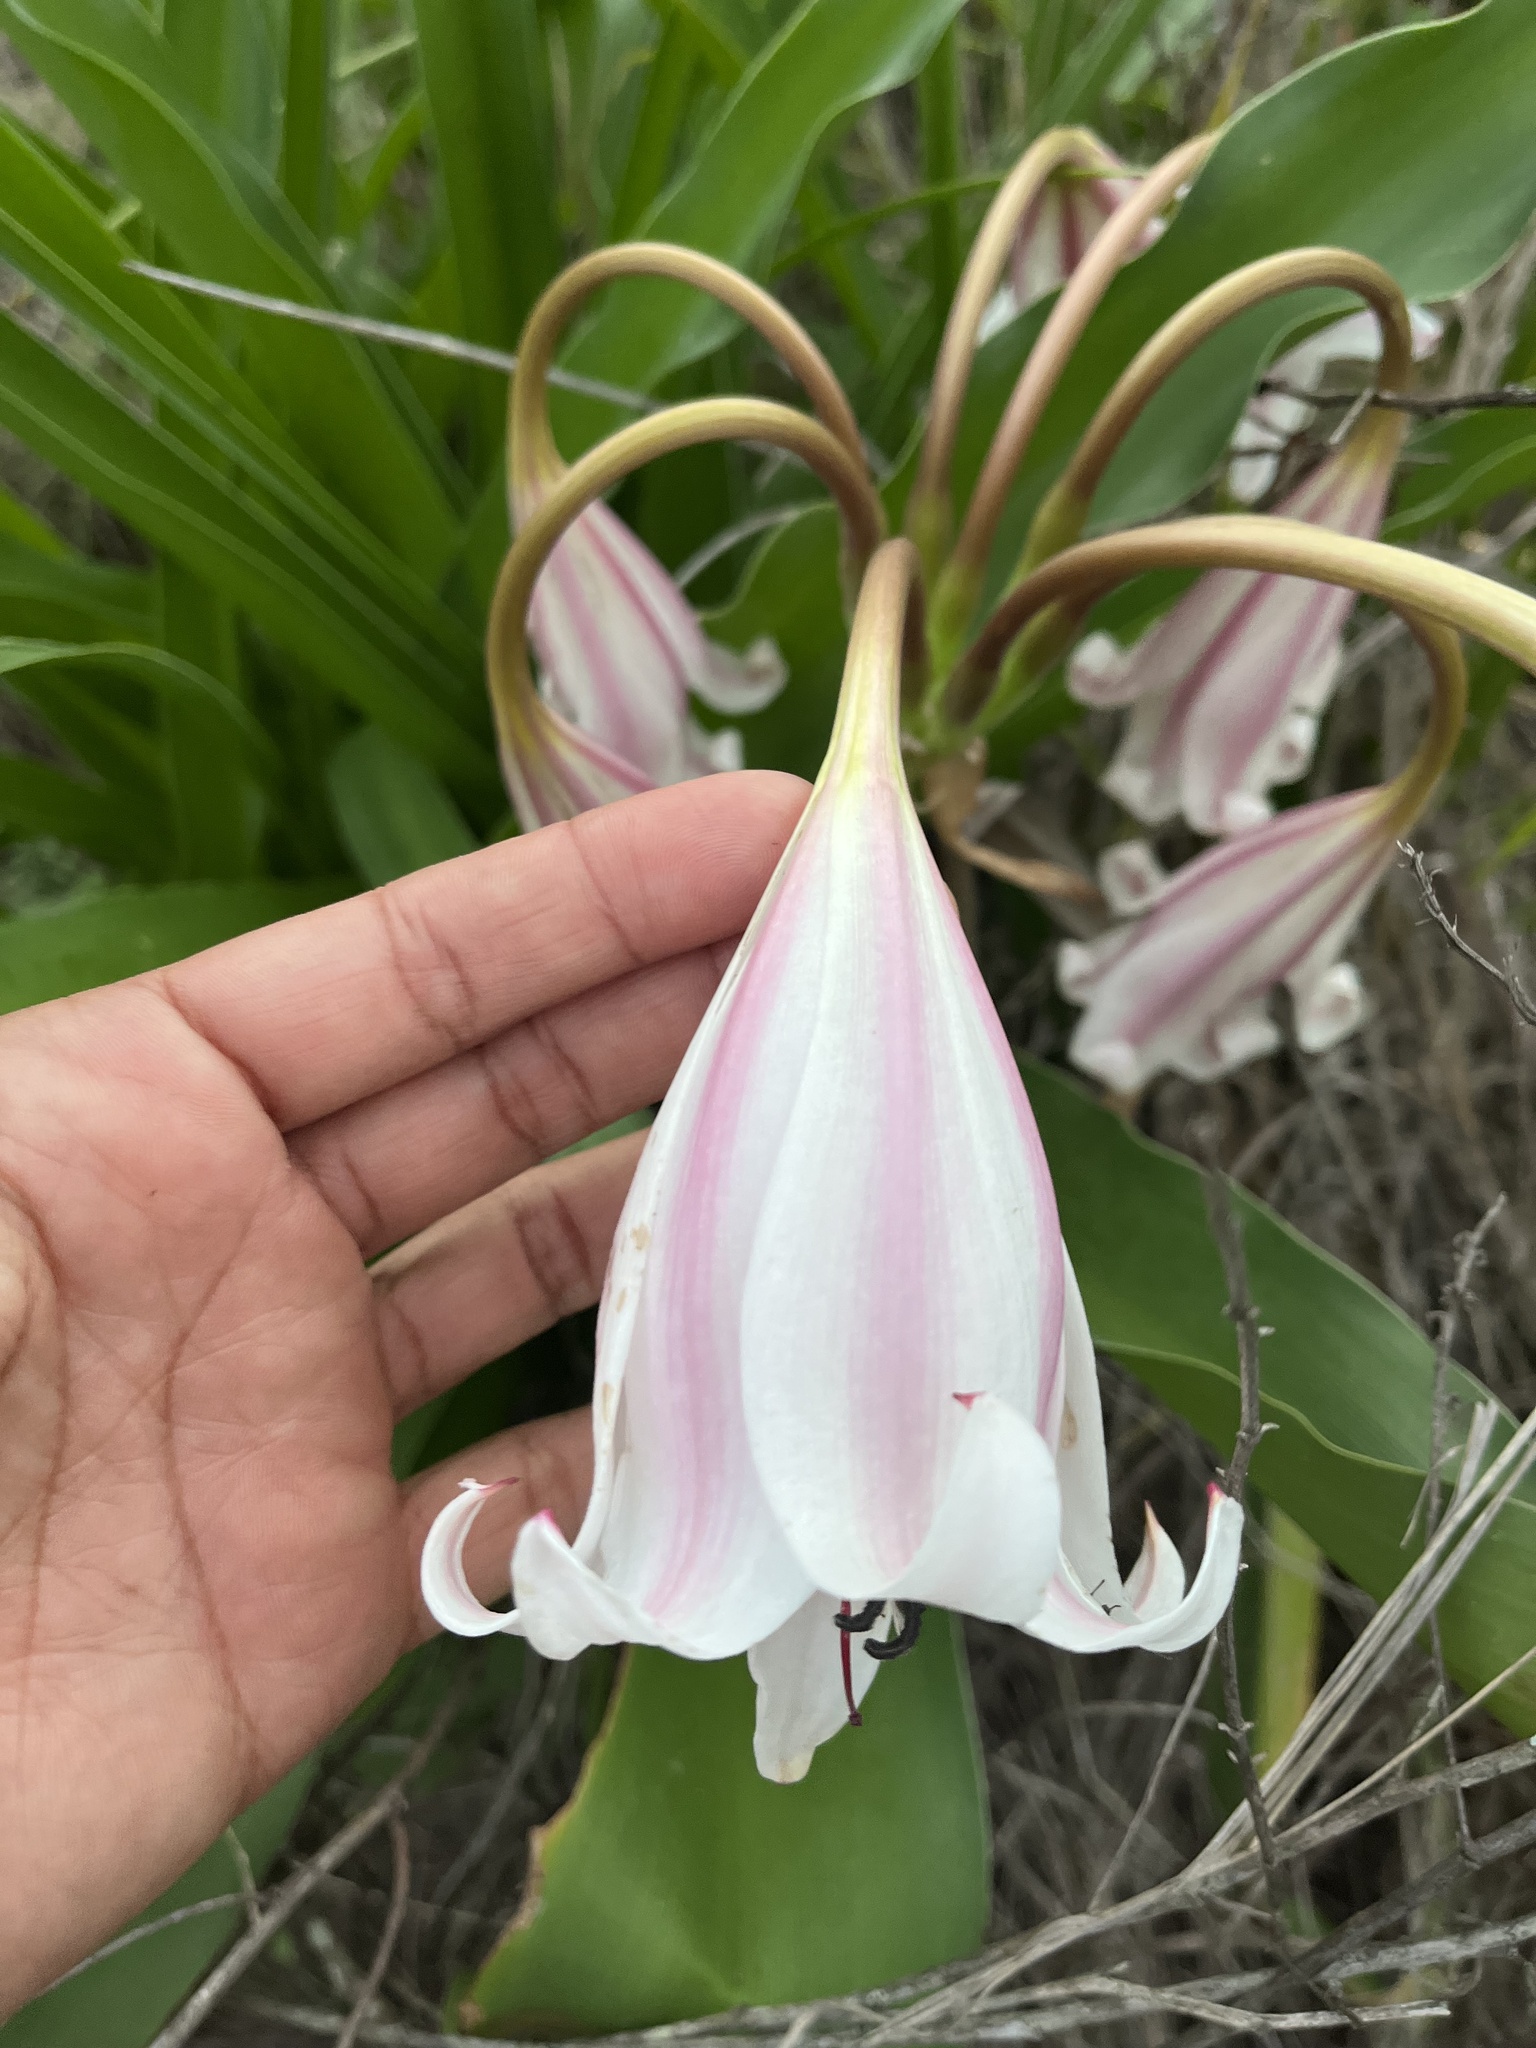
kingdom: Plantae
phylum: Tracheophyta
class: Liliopsida
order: Asparagales
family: Amaryllidaceae
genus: Crinum
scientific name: Crinum macowanii
